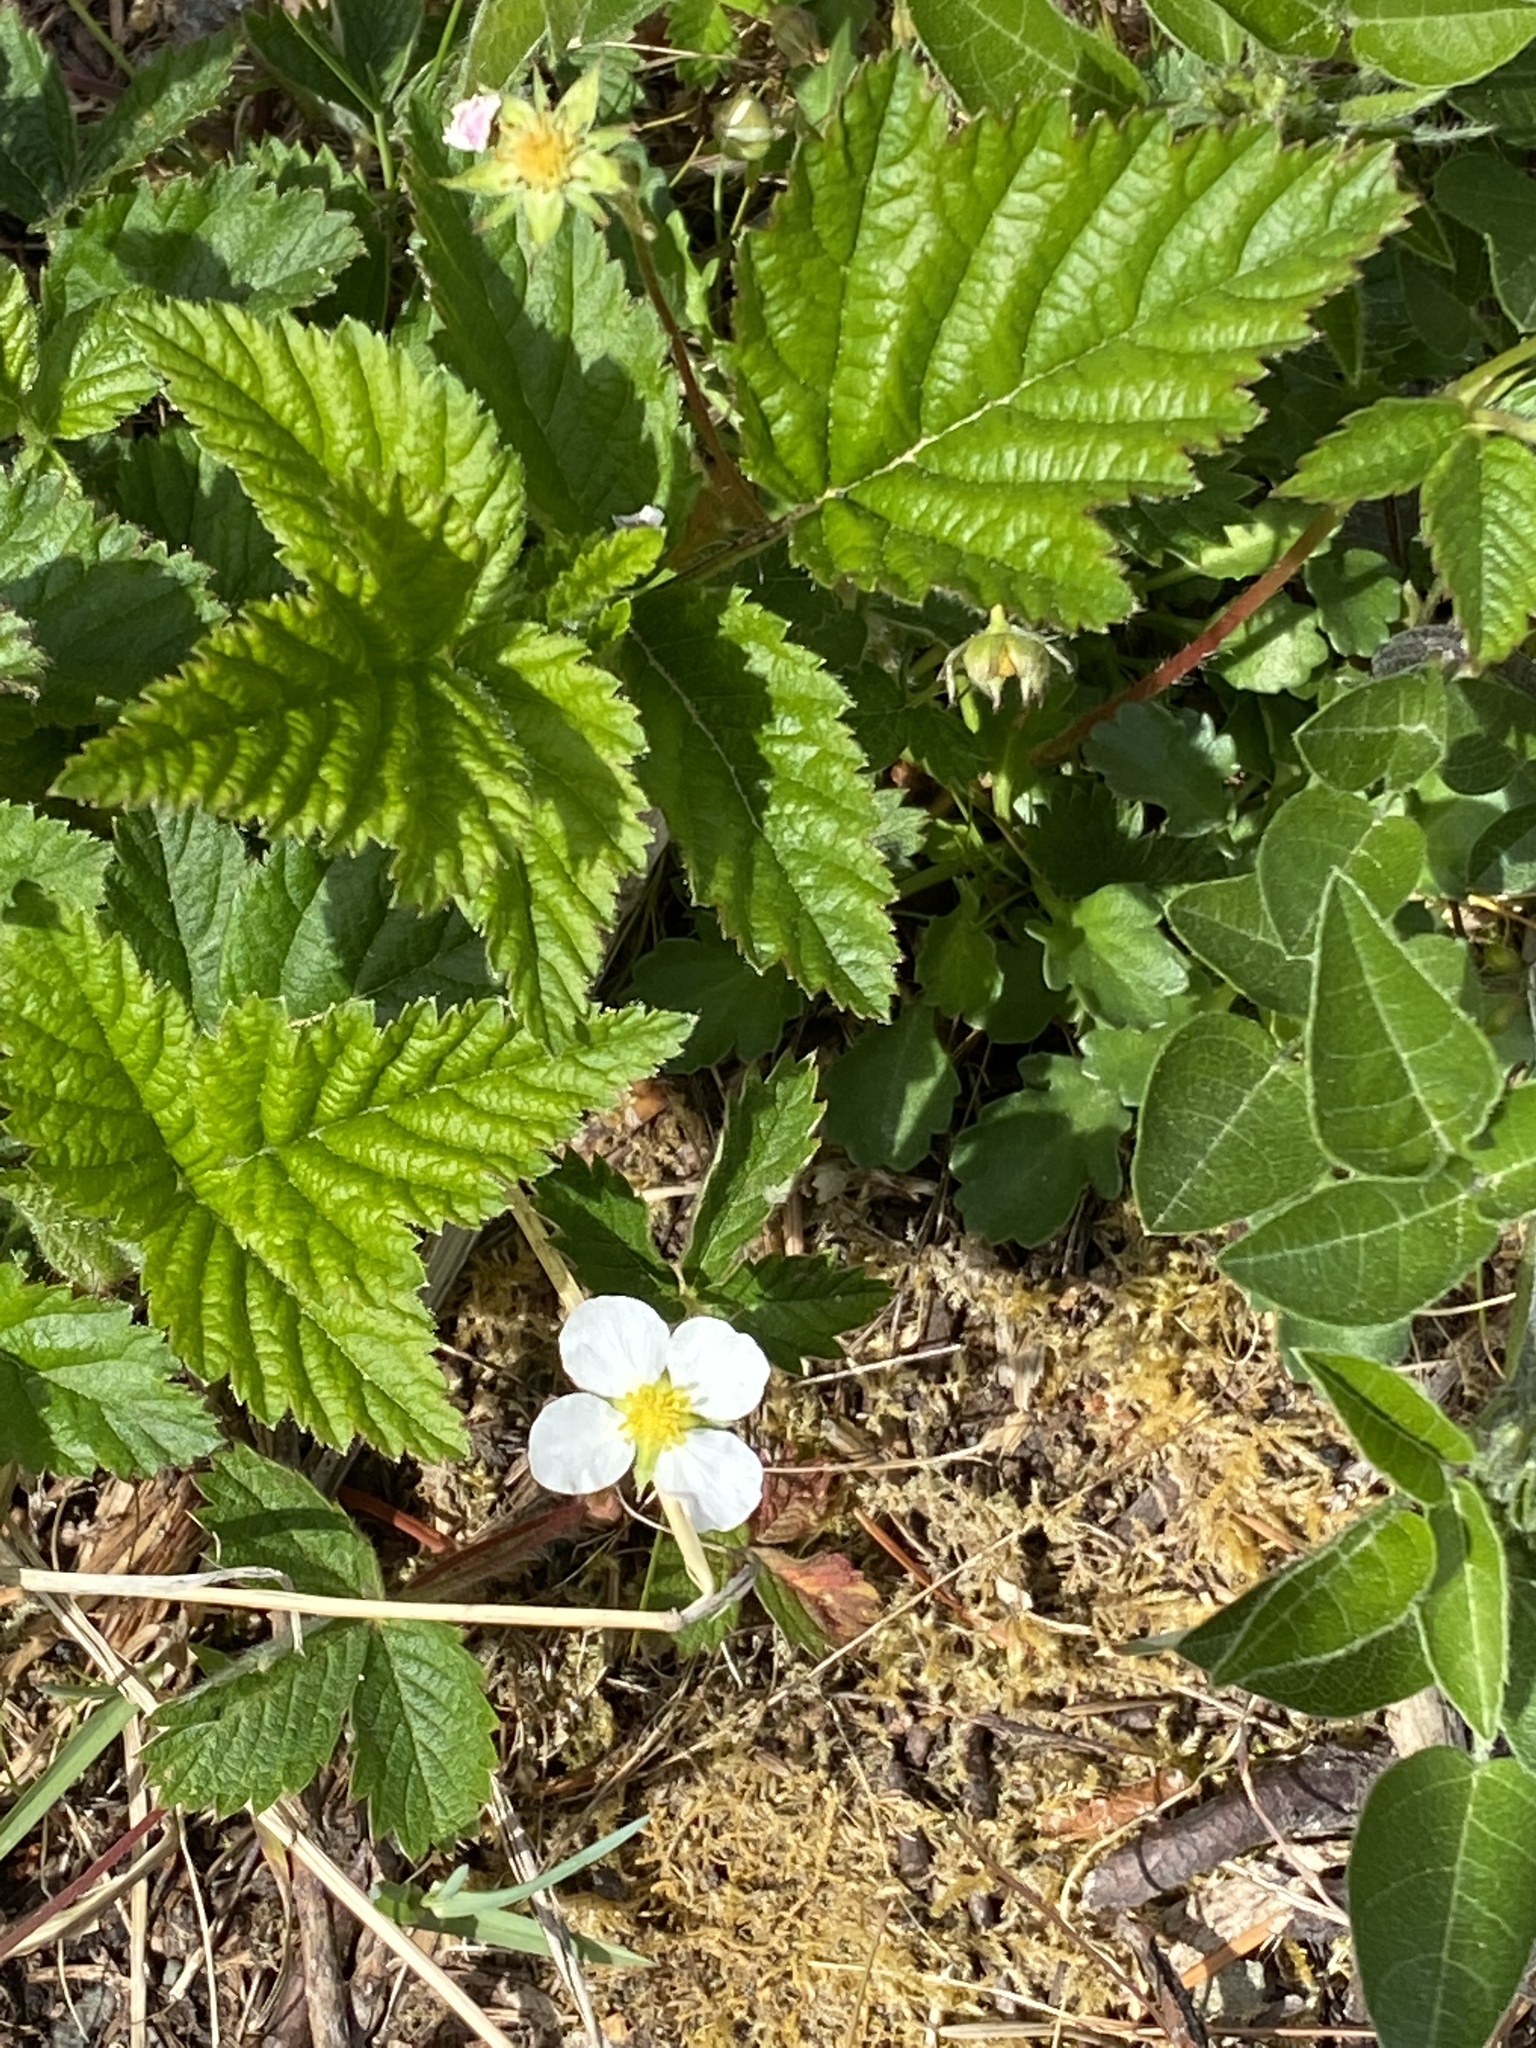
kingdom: Plantae
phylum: Tracheophyta
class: Magnoliopsida
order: Rosales
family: Rosaceae
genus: Fragaria
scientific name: Fragaria vesca
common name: Wild strawberry
